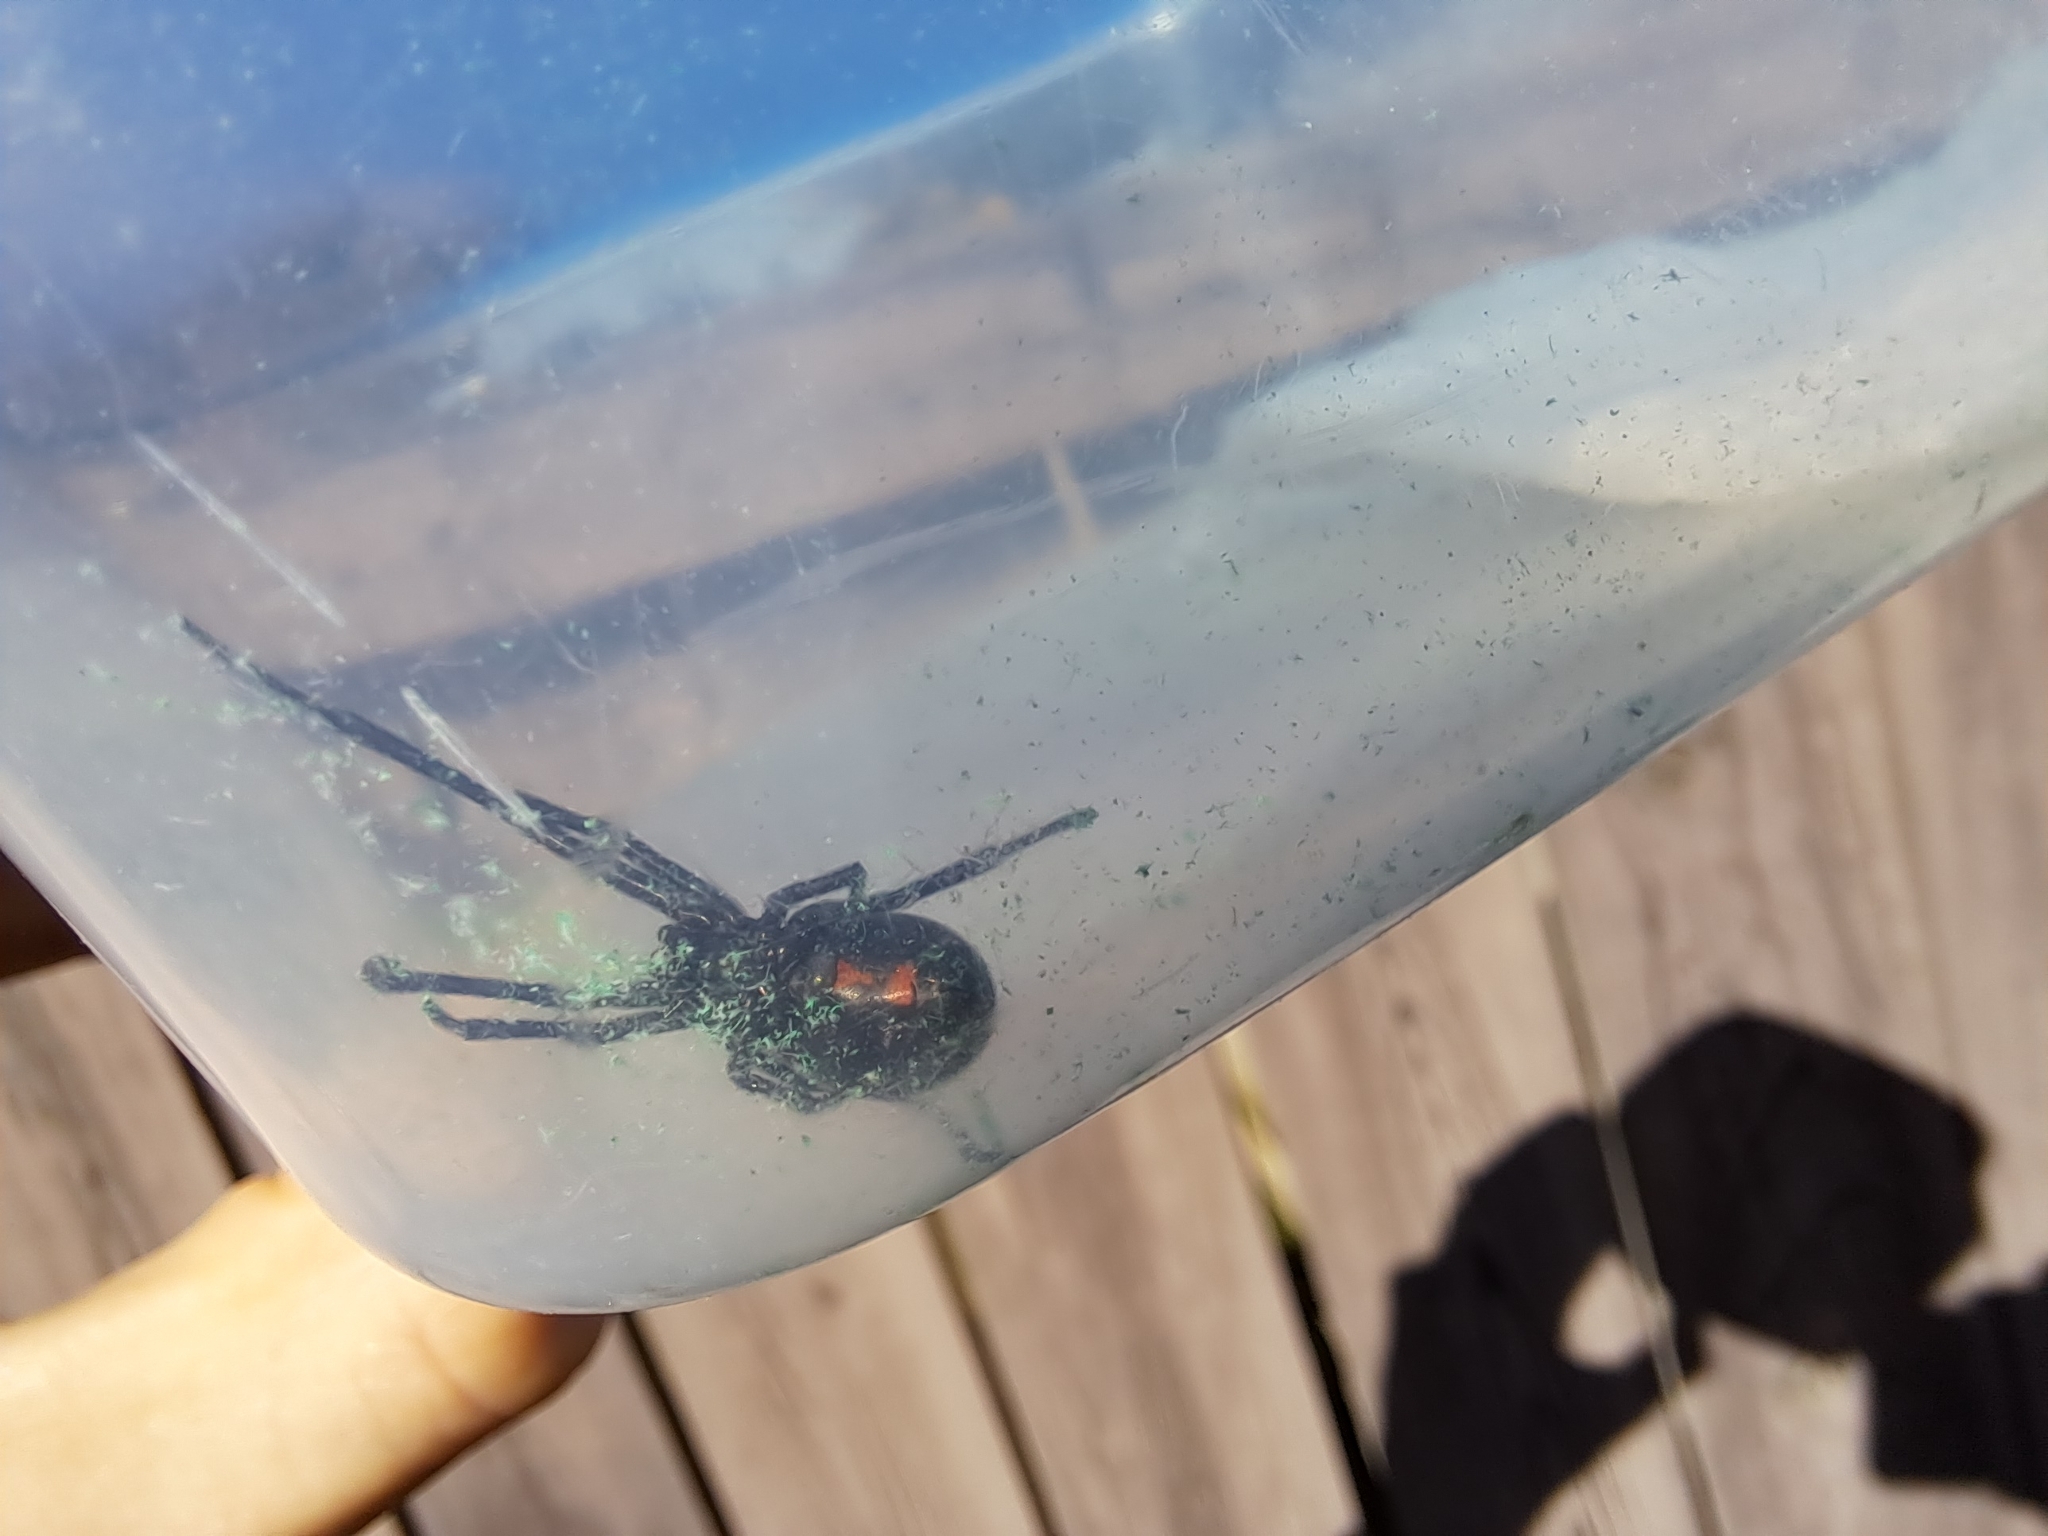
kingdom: Animalia
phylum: Arthropoda
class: Arachnida
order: Araneae
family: Theridiidae
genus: Latrodectus
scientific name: Latrodectus hesperus
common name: Western black widow
